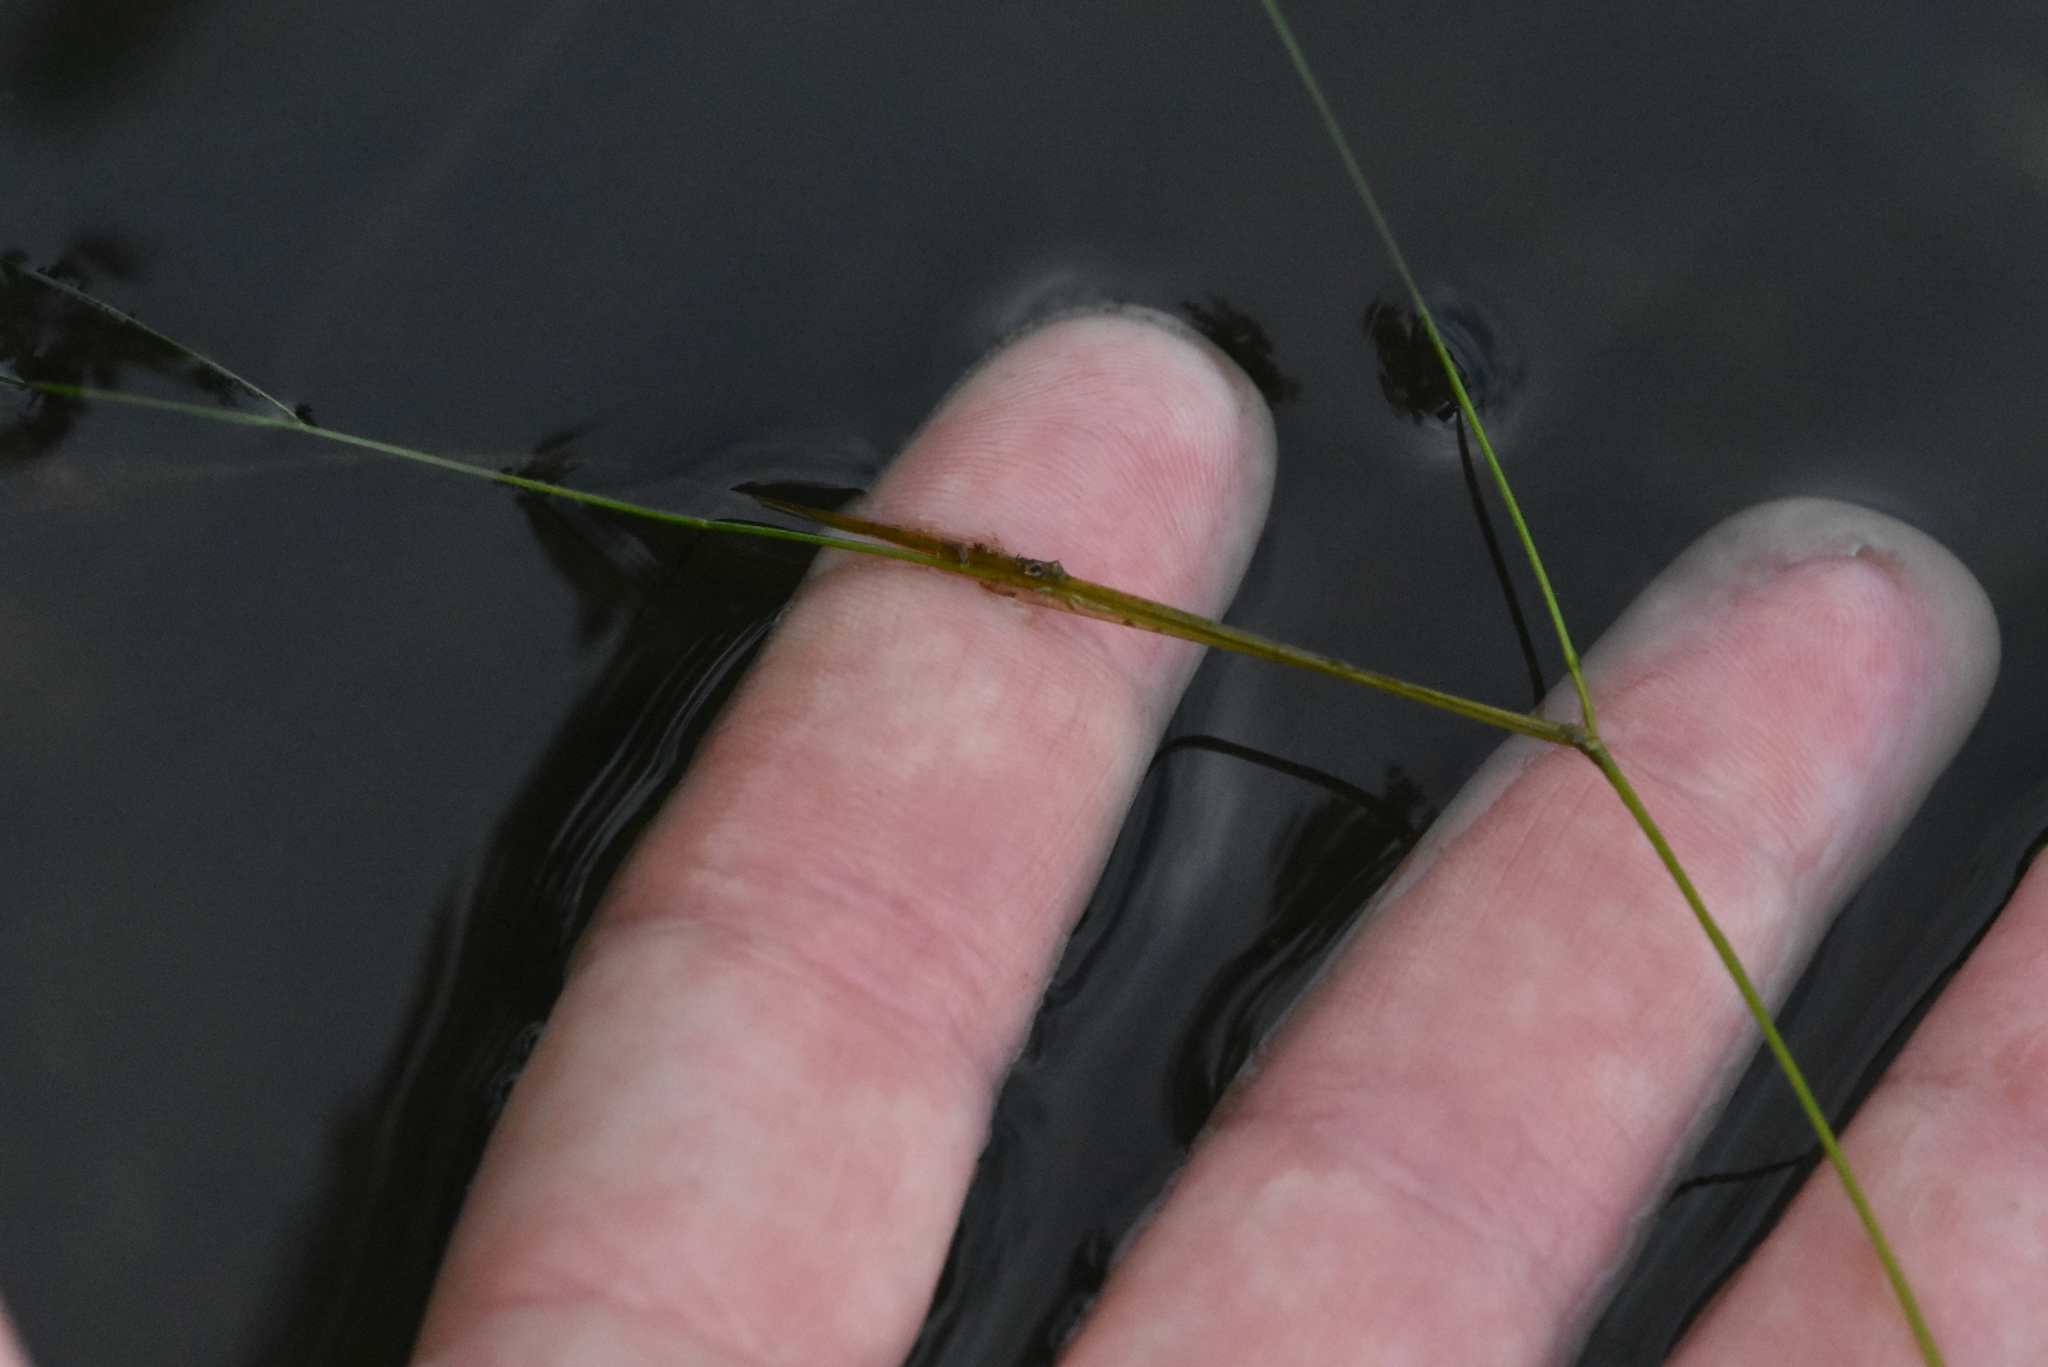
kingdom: Plantae
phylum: Tracheophyta
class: Liliopsida
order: Alismatales
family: Potamogetonaceae
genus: Potamogeton
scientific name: Potamogeton trichoides
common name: Hairlike pondweed
